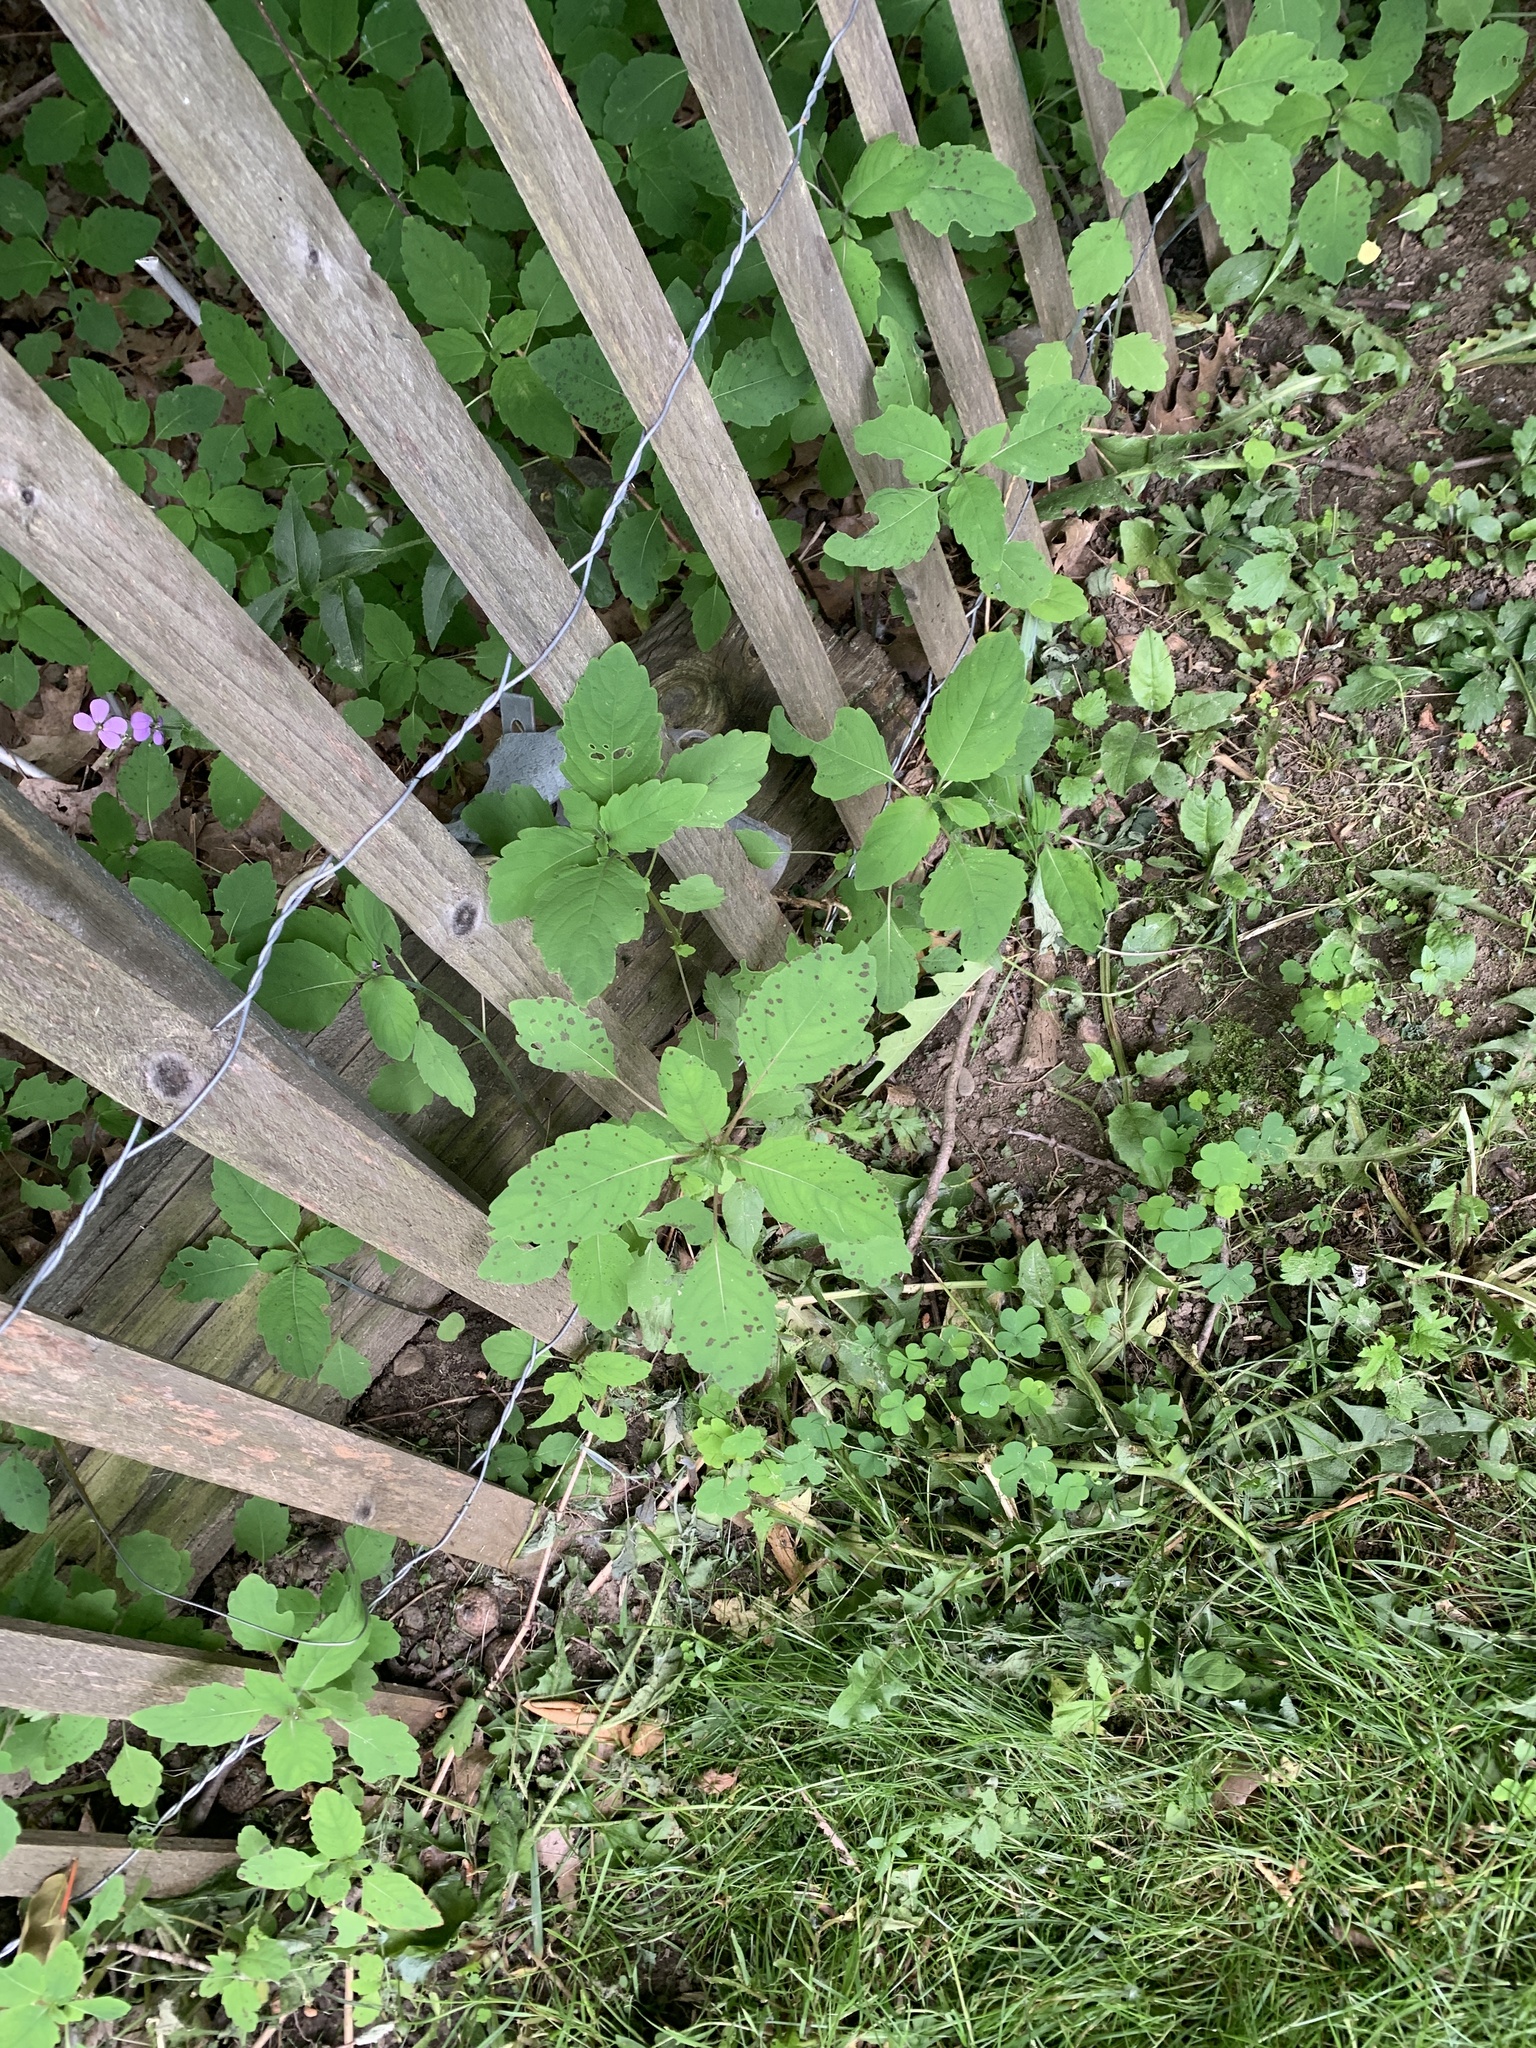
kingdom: Plantae
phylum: Tracheophyta
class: Magnoliopsida
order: Ericales
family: Balsaminaceae
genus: Impatiens
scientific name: Impatiens capensis
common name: Orange balsam
